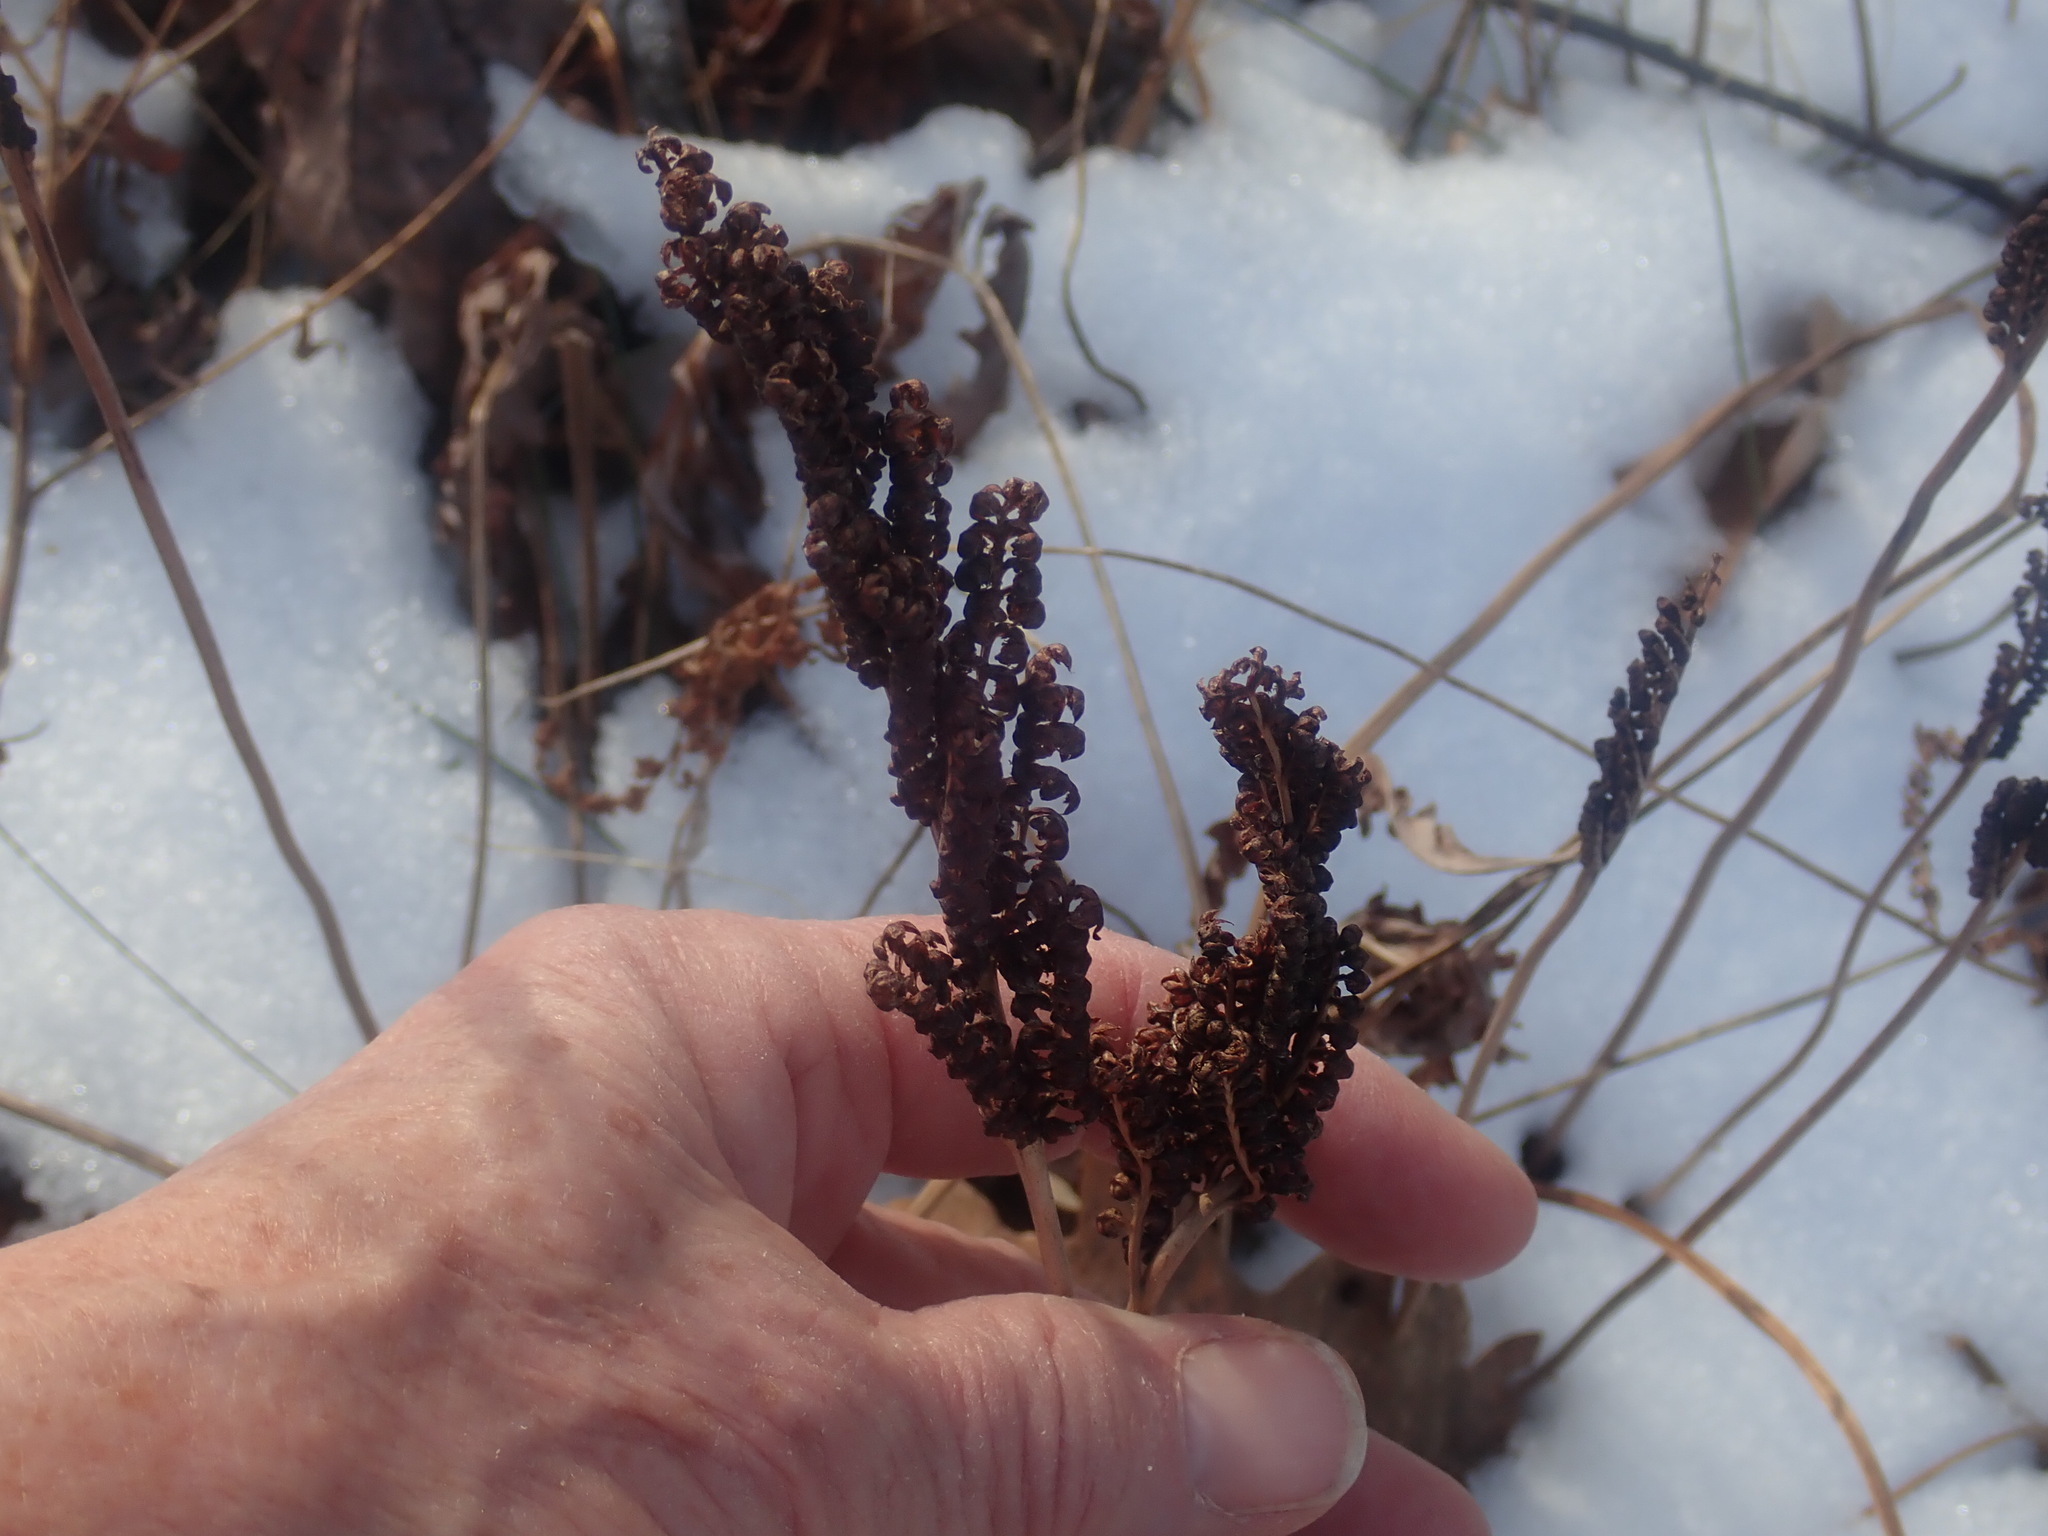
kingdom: Plantae
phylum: Tracheophyta
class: Polypodiopsida
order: Polypodiales
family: Onocleaceae
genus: Onoclea
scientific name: Onoclea sensibilis
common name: Sensitive fern
